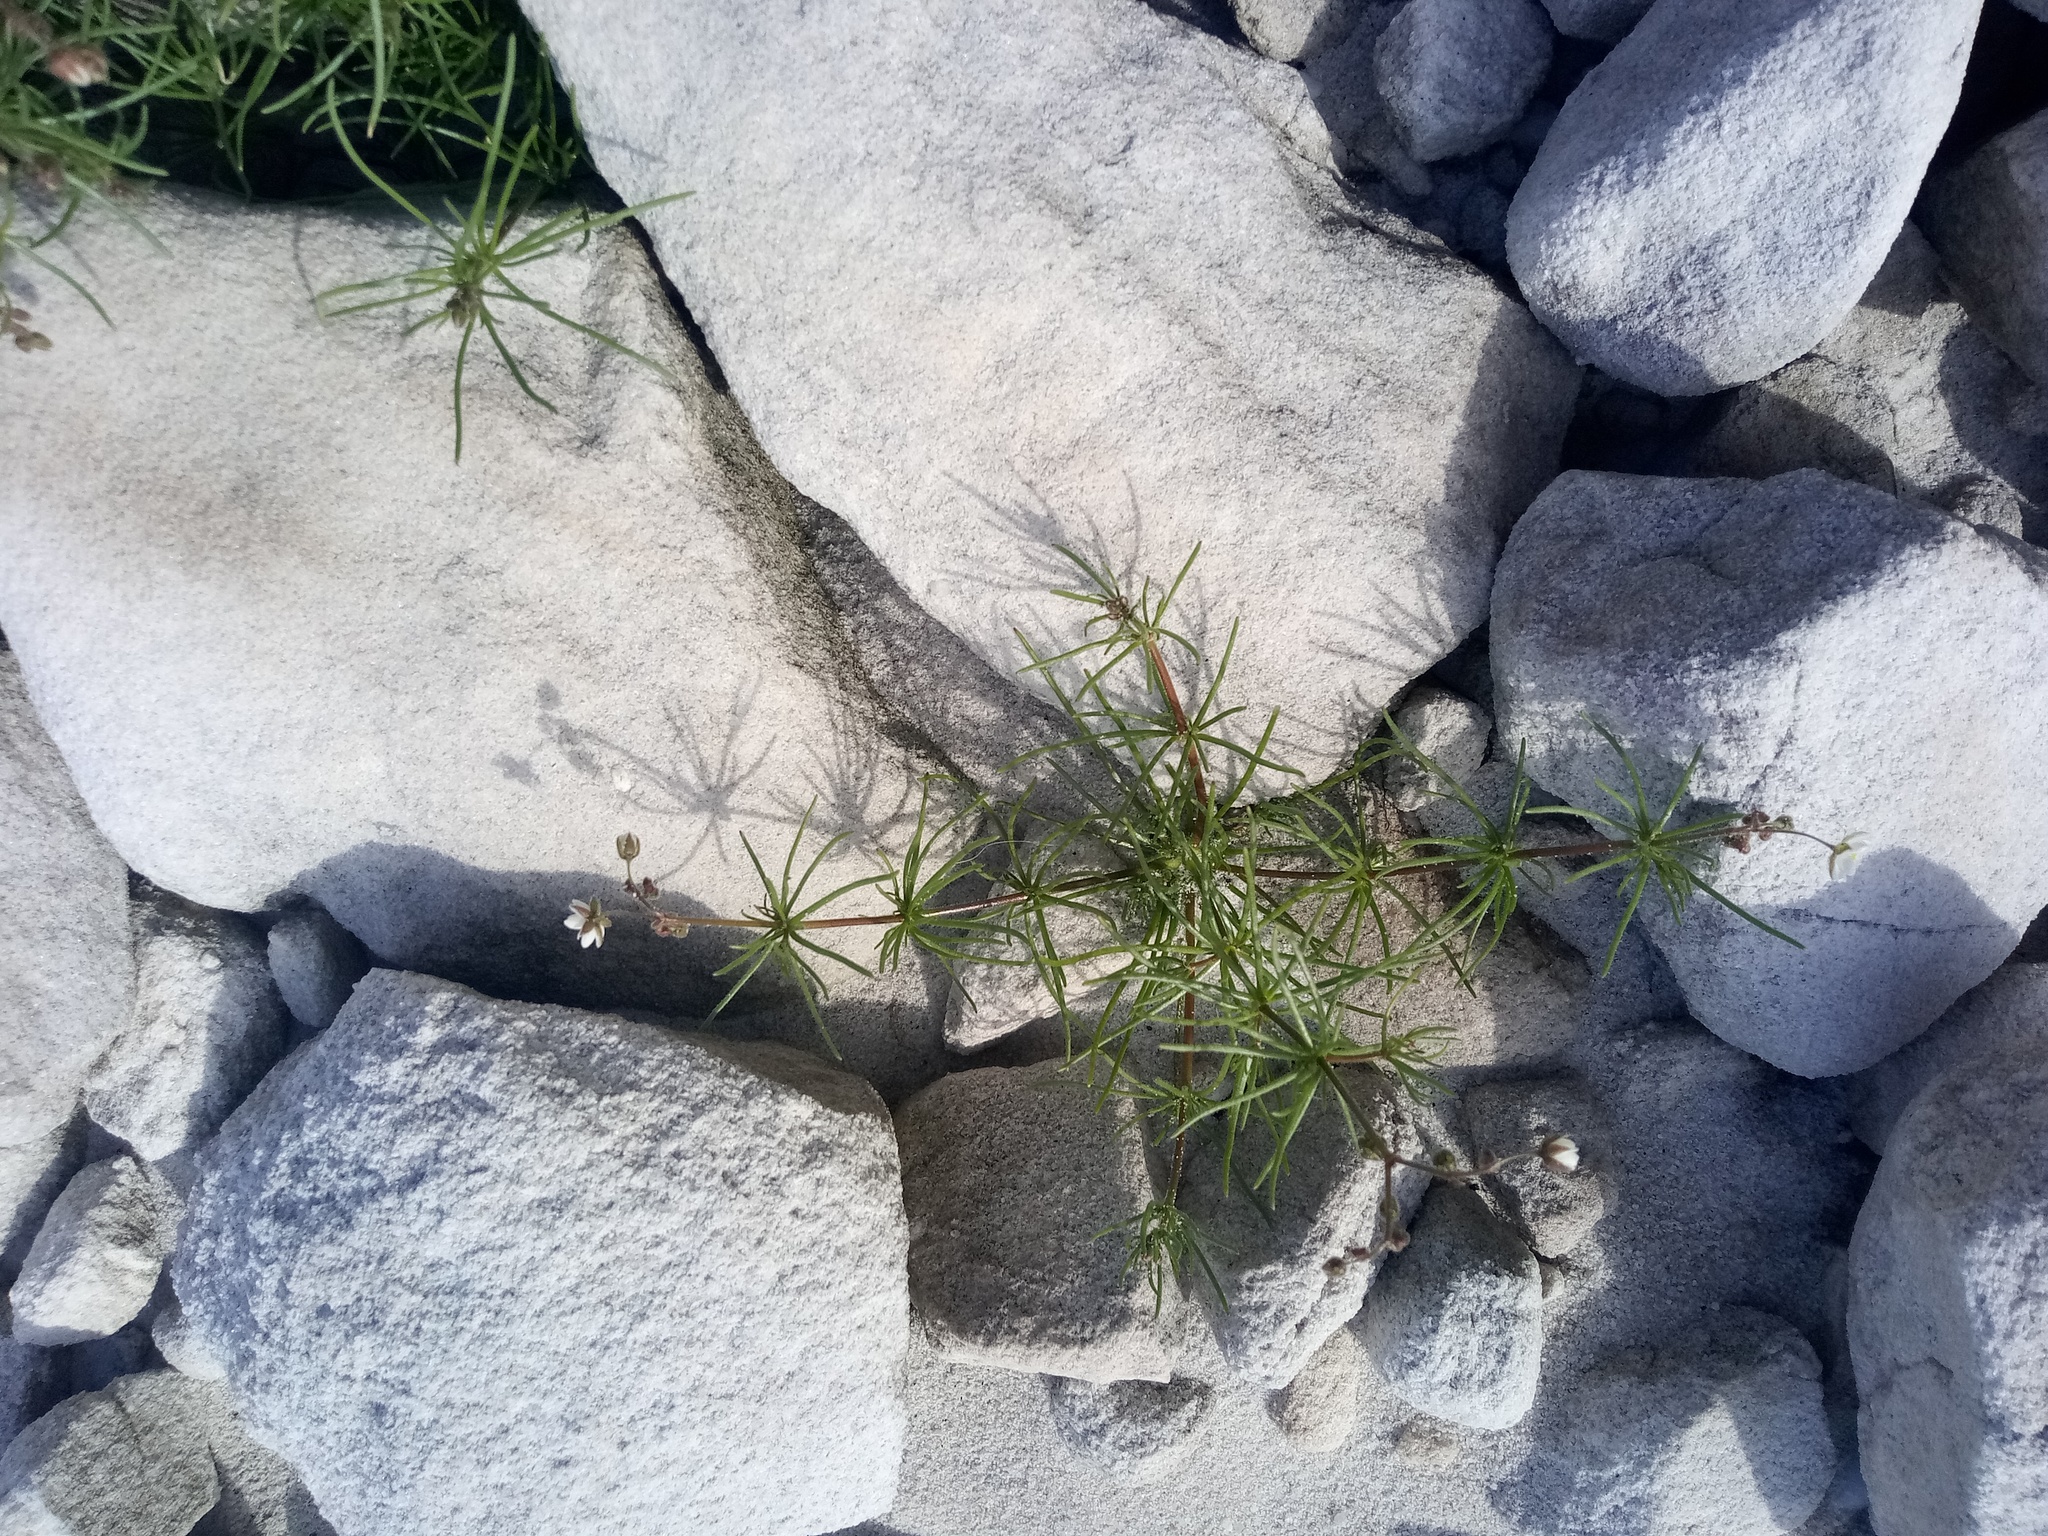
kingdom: Plantae
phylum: Tracheophyta
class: Magnoliopsida
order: Caryophyllales
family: Caryophyllaceae
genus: Spergula
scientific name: Spergula arvensis
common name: Corn spurrey
